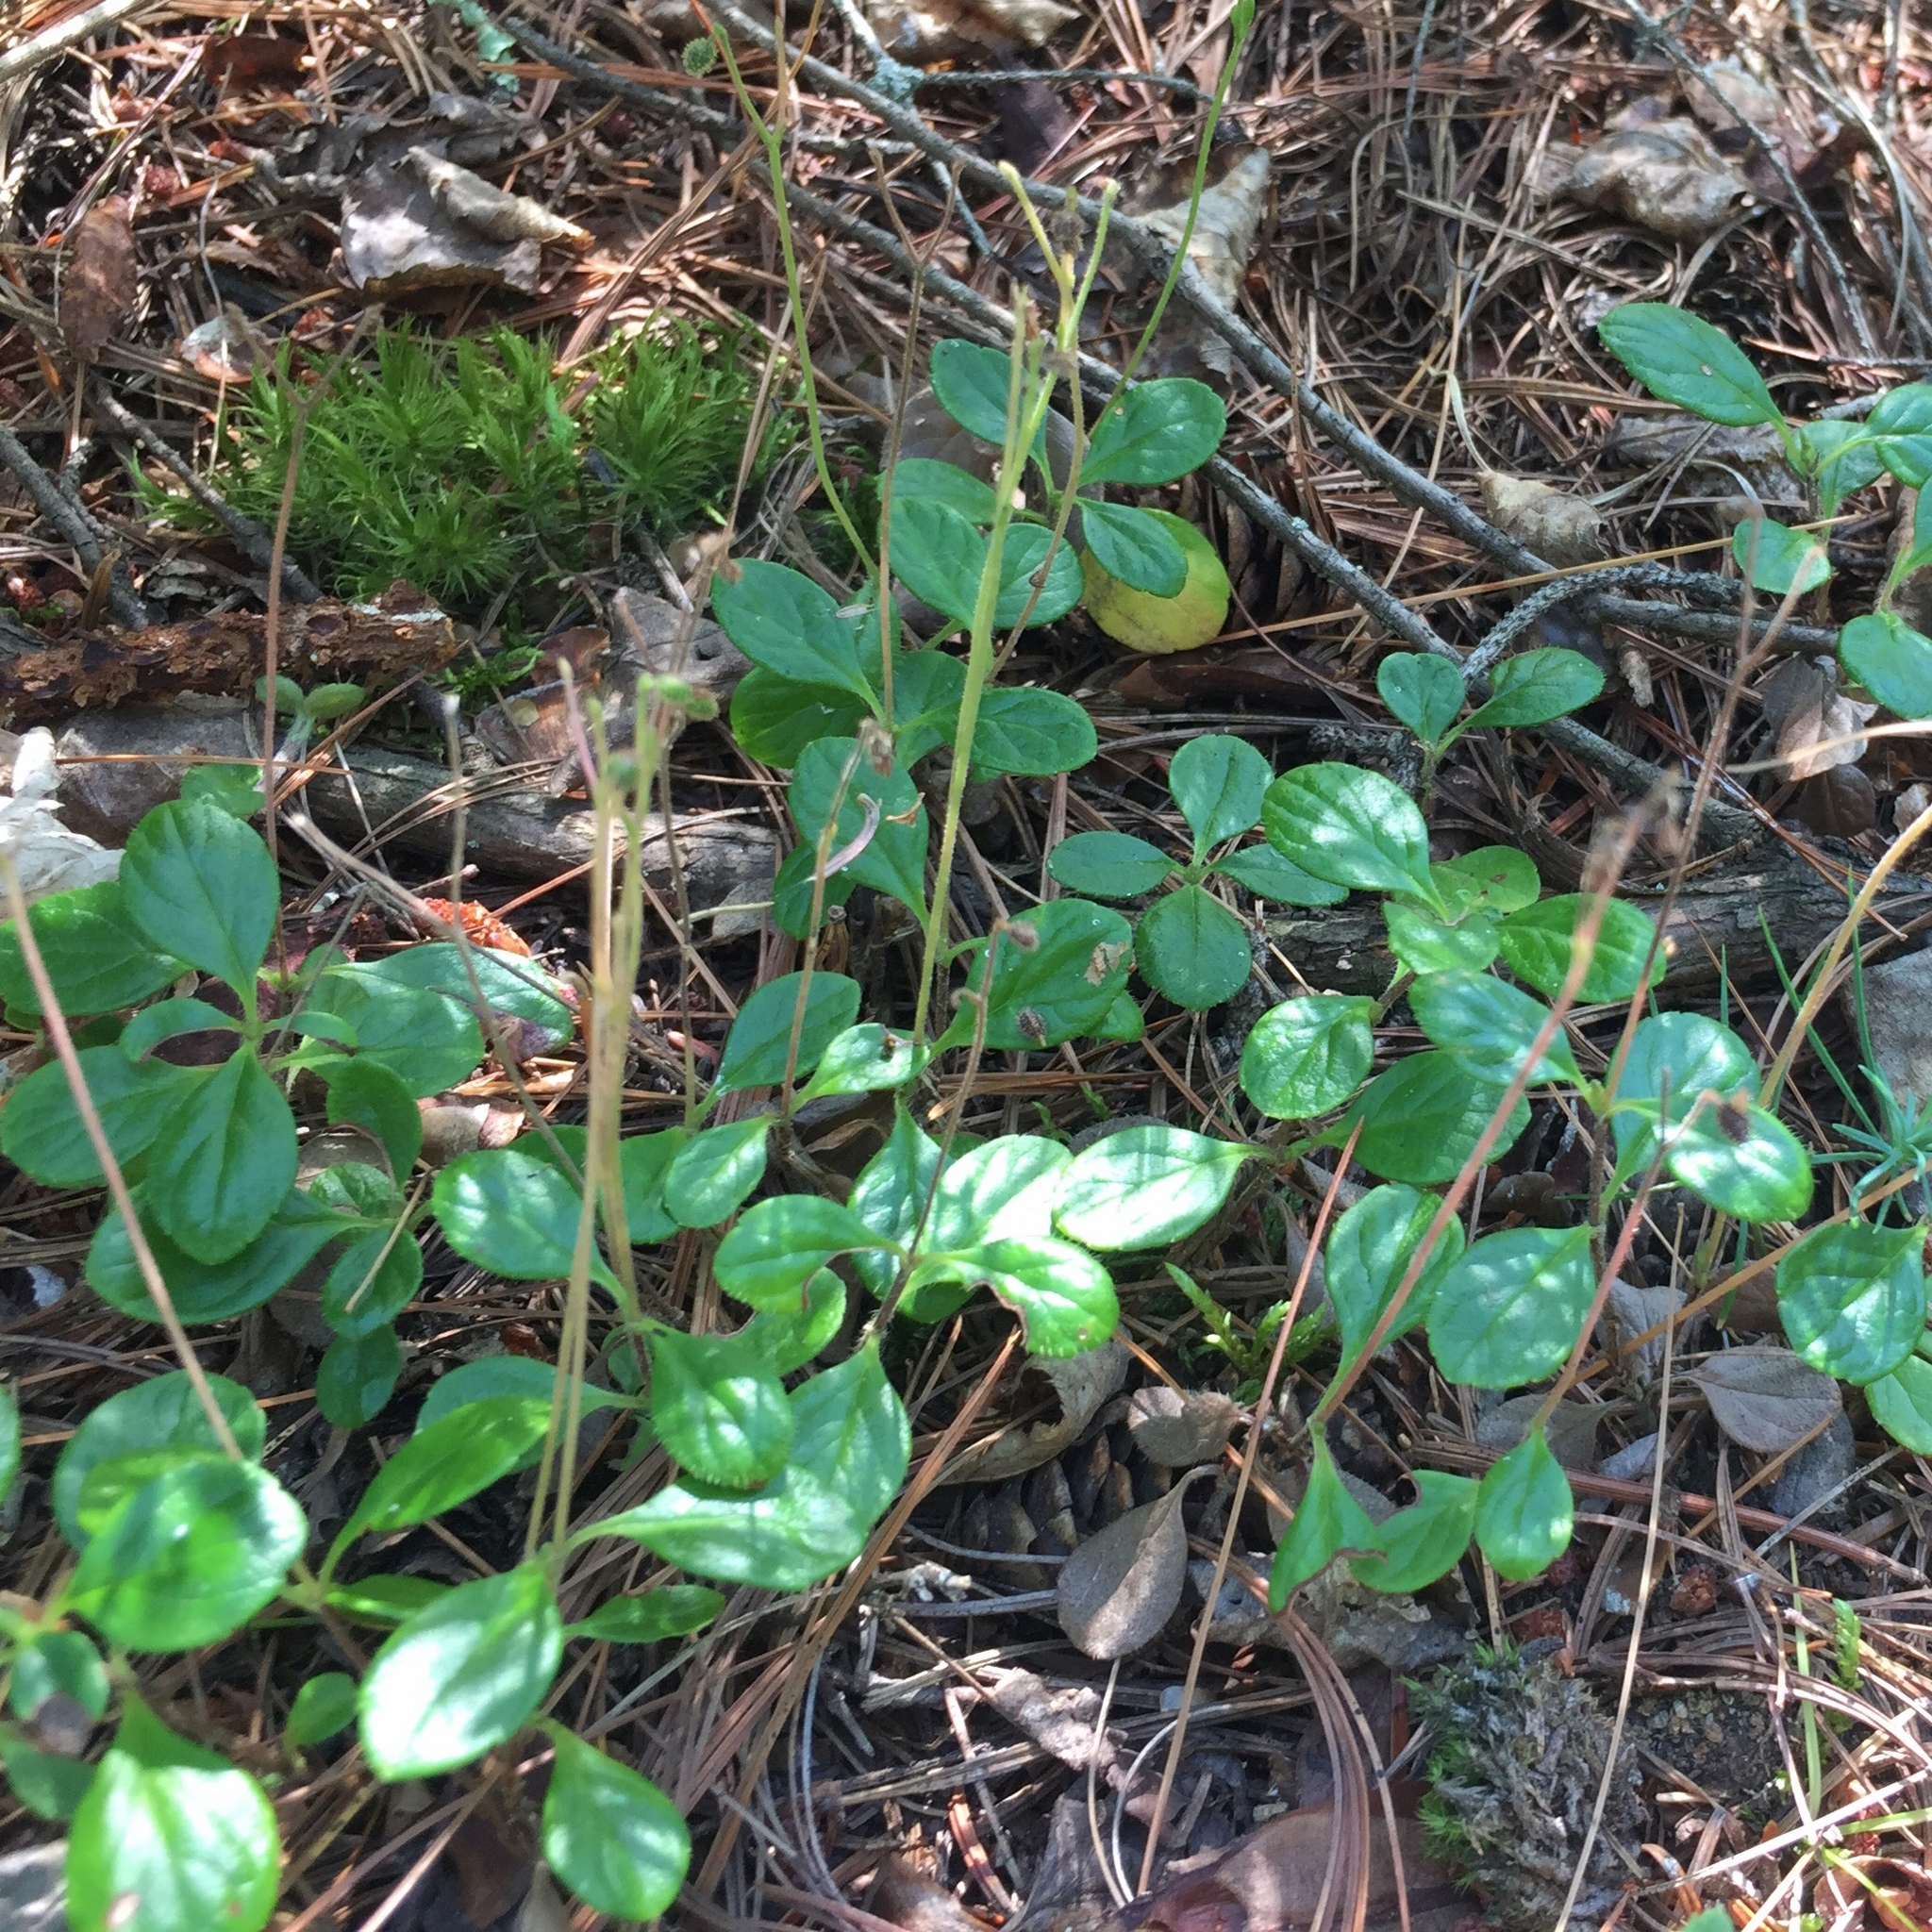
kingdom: Plantae
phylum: Tracheophyta
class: Magnoliopsida
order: Dipsacales
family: Caprifoliaceae
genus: Linnaea
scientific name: Linnaea borealis
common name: Twinflower
